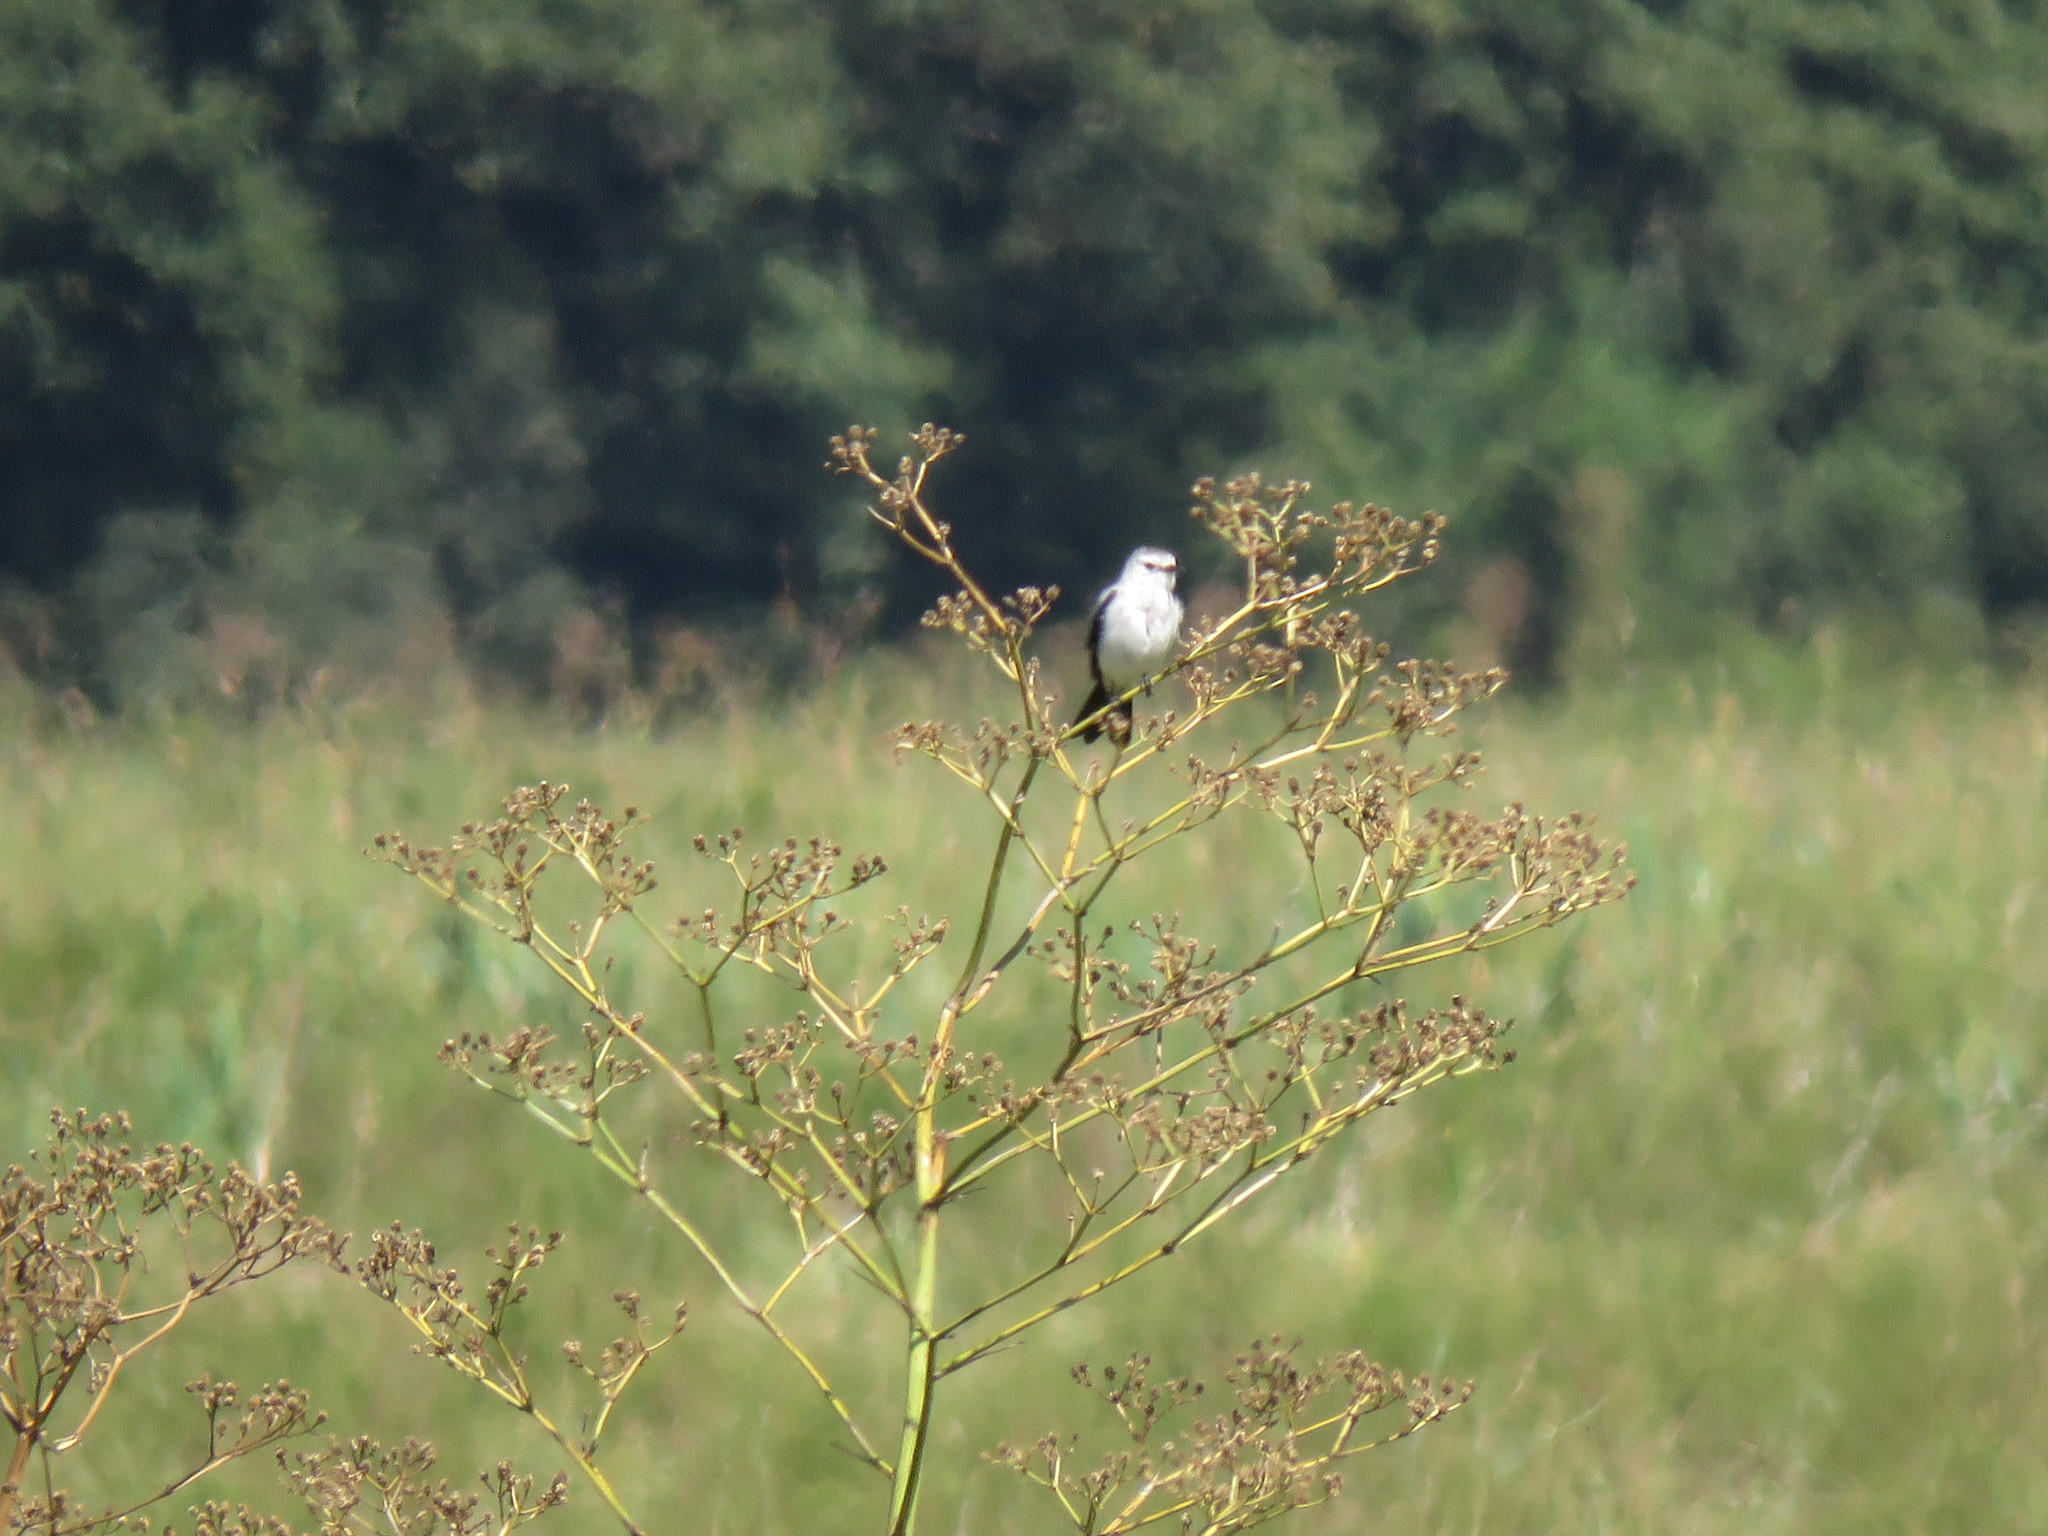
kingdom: Animalia
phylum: Chordata
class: Aves
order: Passeriformes
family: Tyrannidae
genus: Heteroxolmis
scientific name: Heteroxolmis dominicana
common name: Black-and-white monjita
